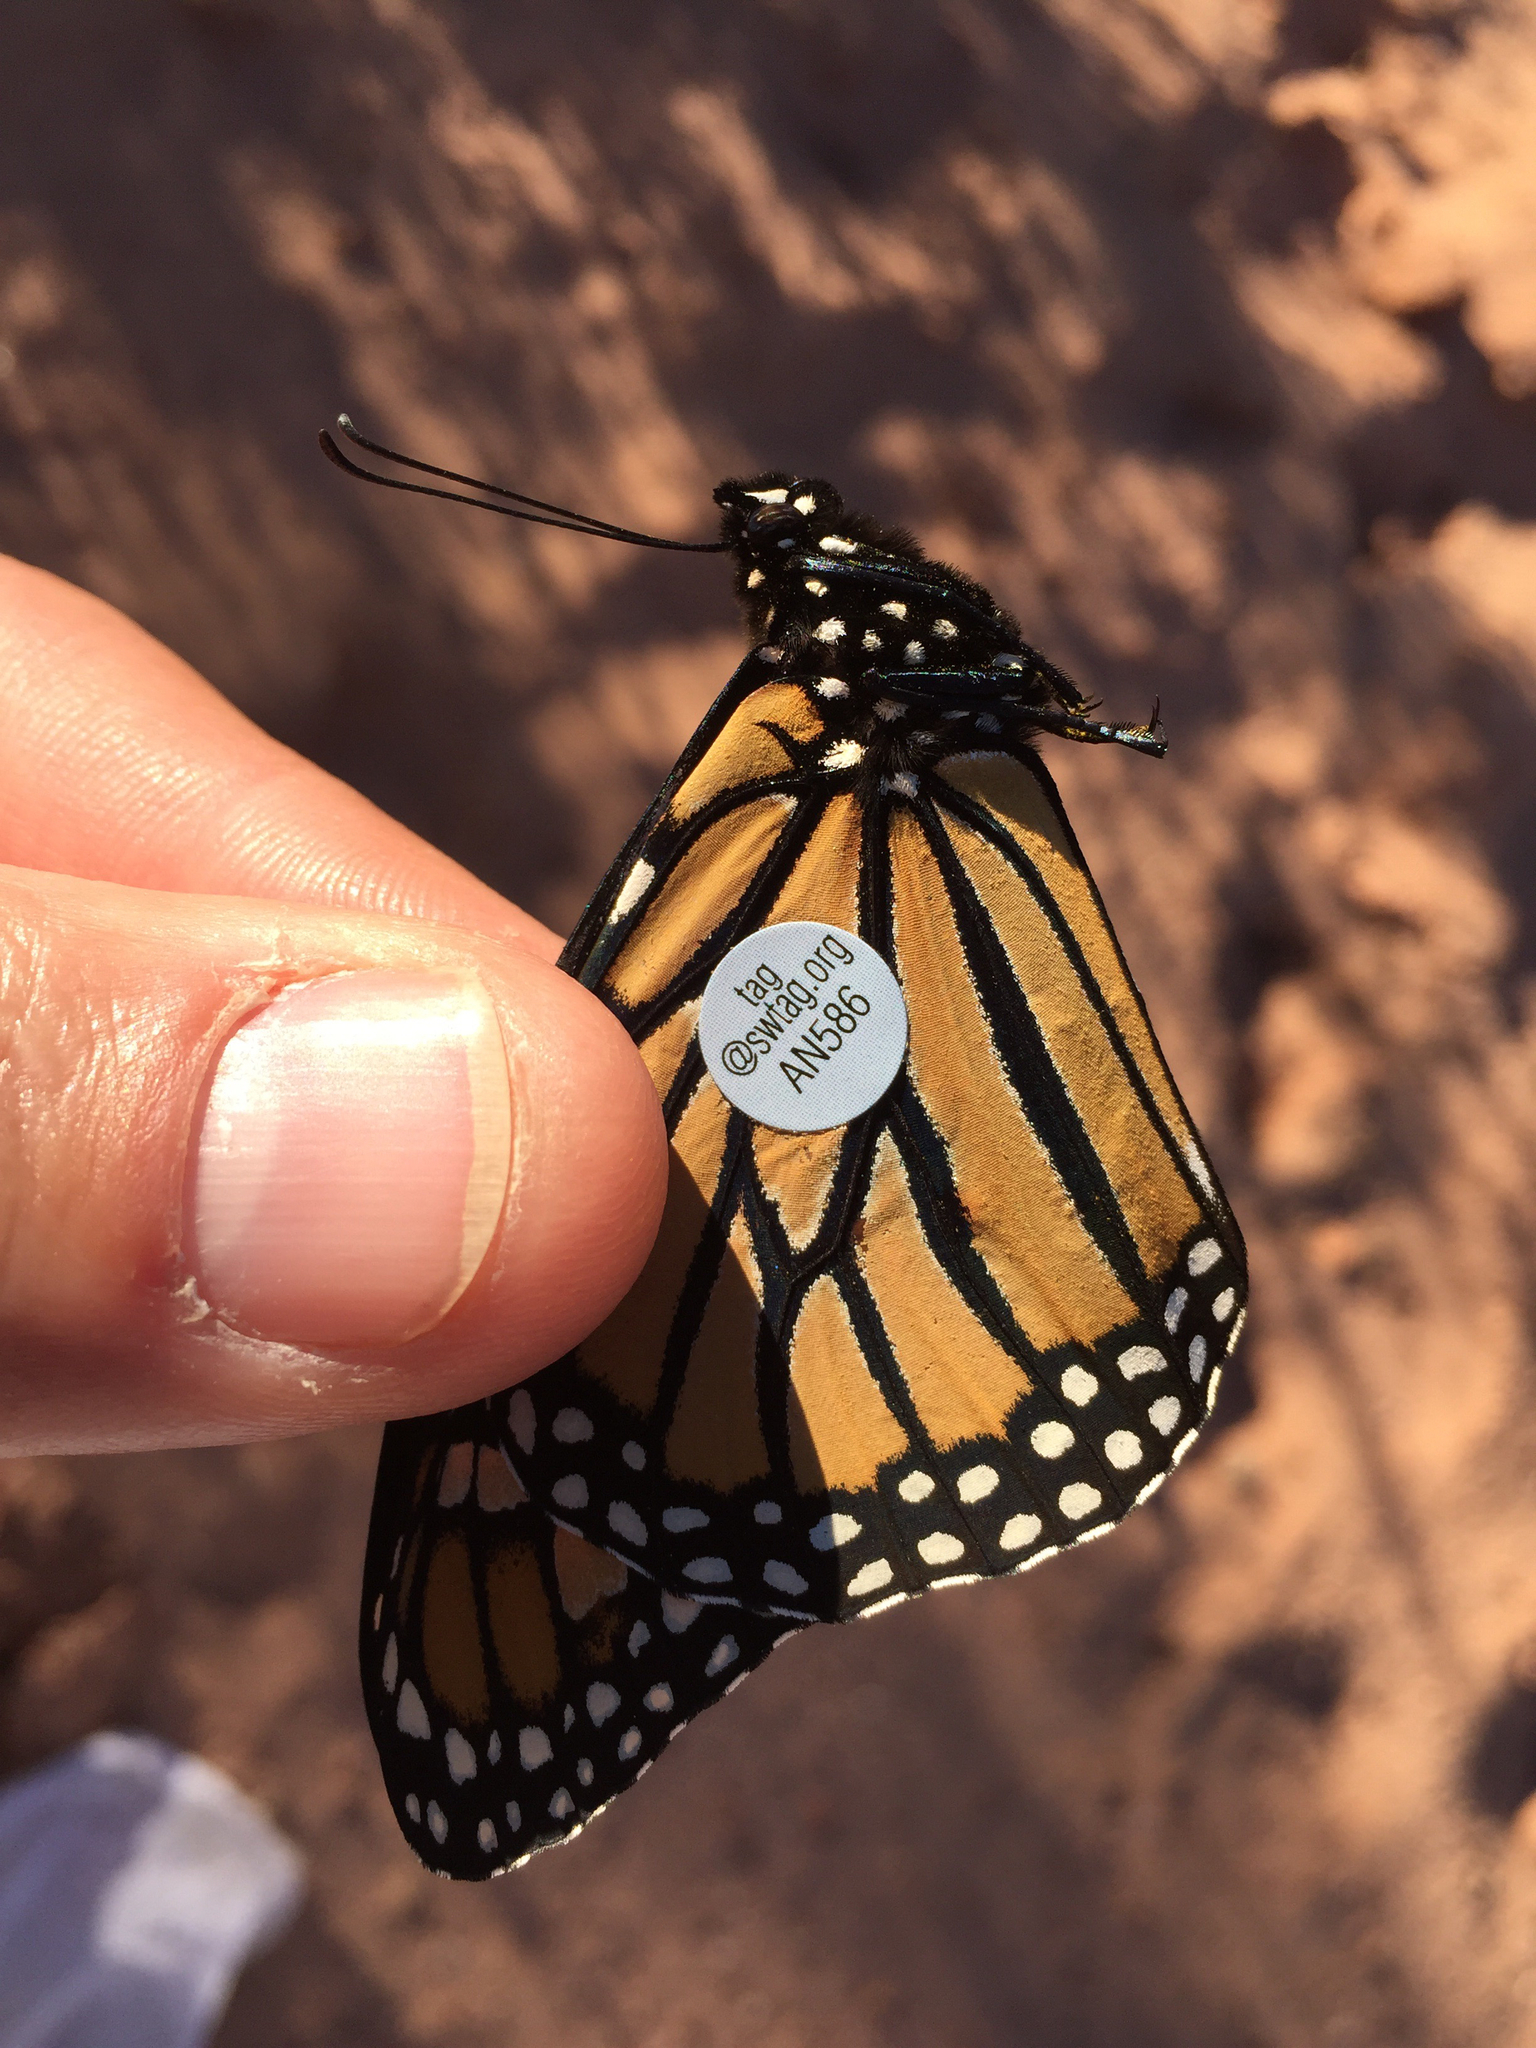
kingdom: Animalia
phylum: Arthropoda
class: Insecta
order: Lepidoptera
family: Nymphalidae
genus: Danaus
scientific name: Danaus plexippus
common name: Monarch
